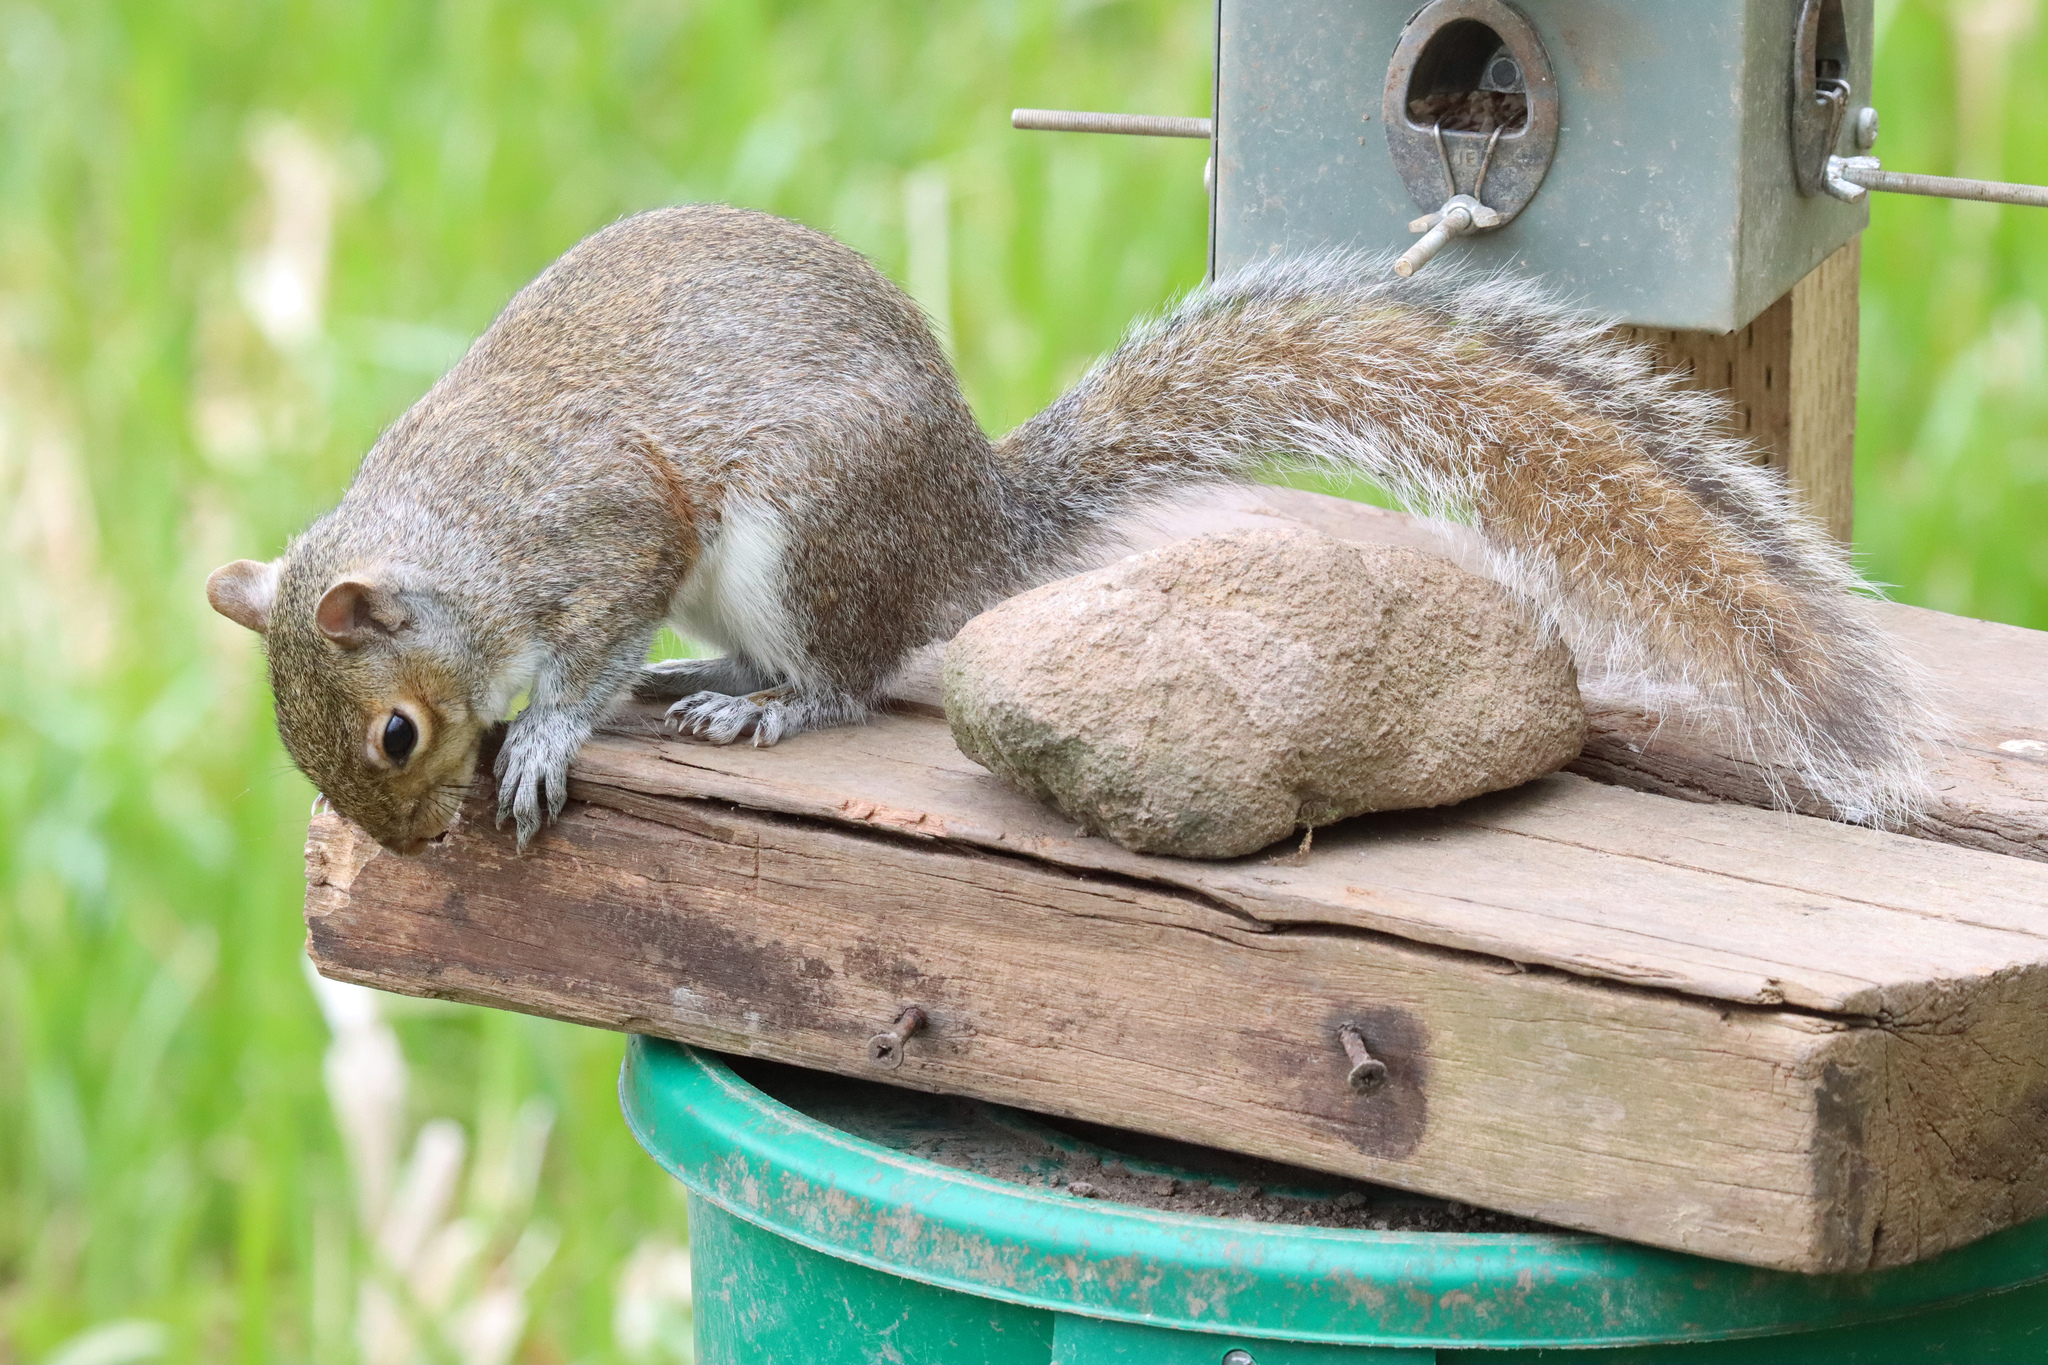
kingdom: Animalia
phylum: Chordata
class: Mammalia
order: Rodentia
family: Sciuridae
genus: Sciurus
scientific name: Sciurus carolinensis
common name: Eastern gray squirrel
